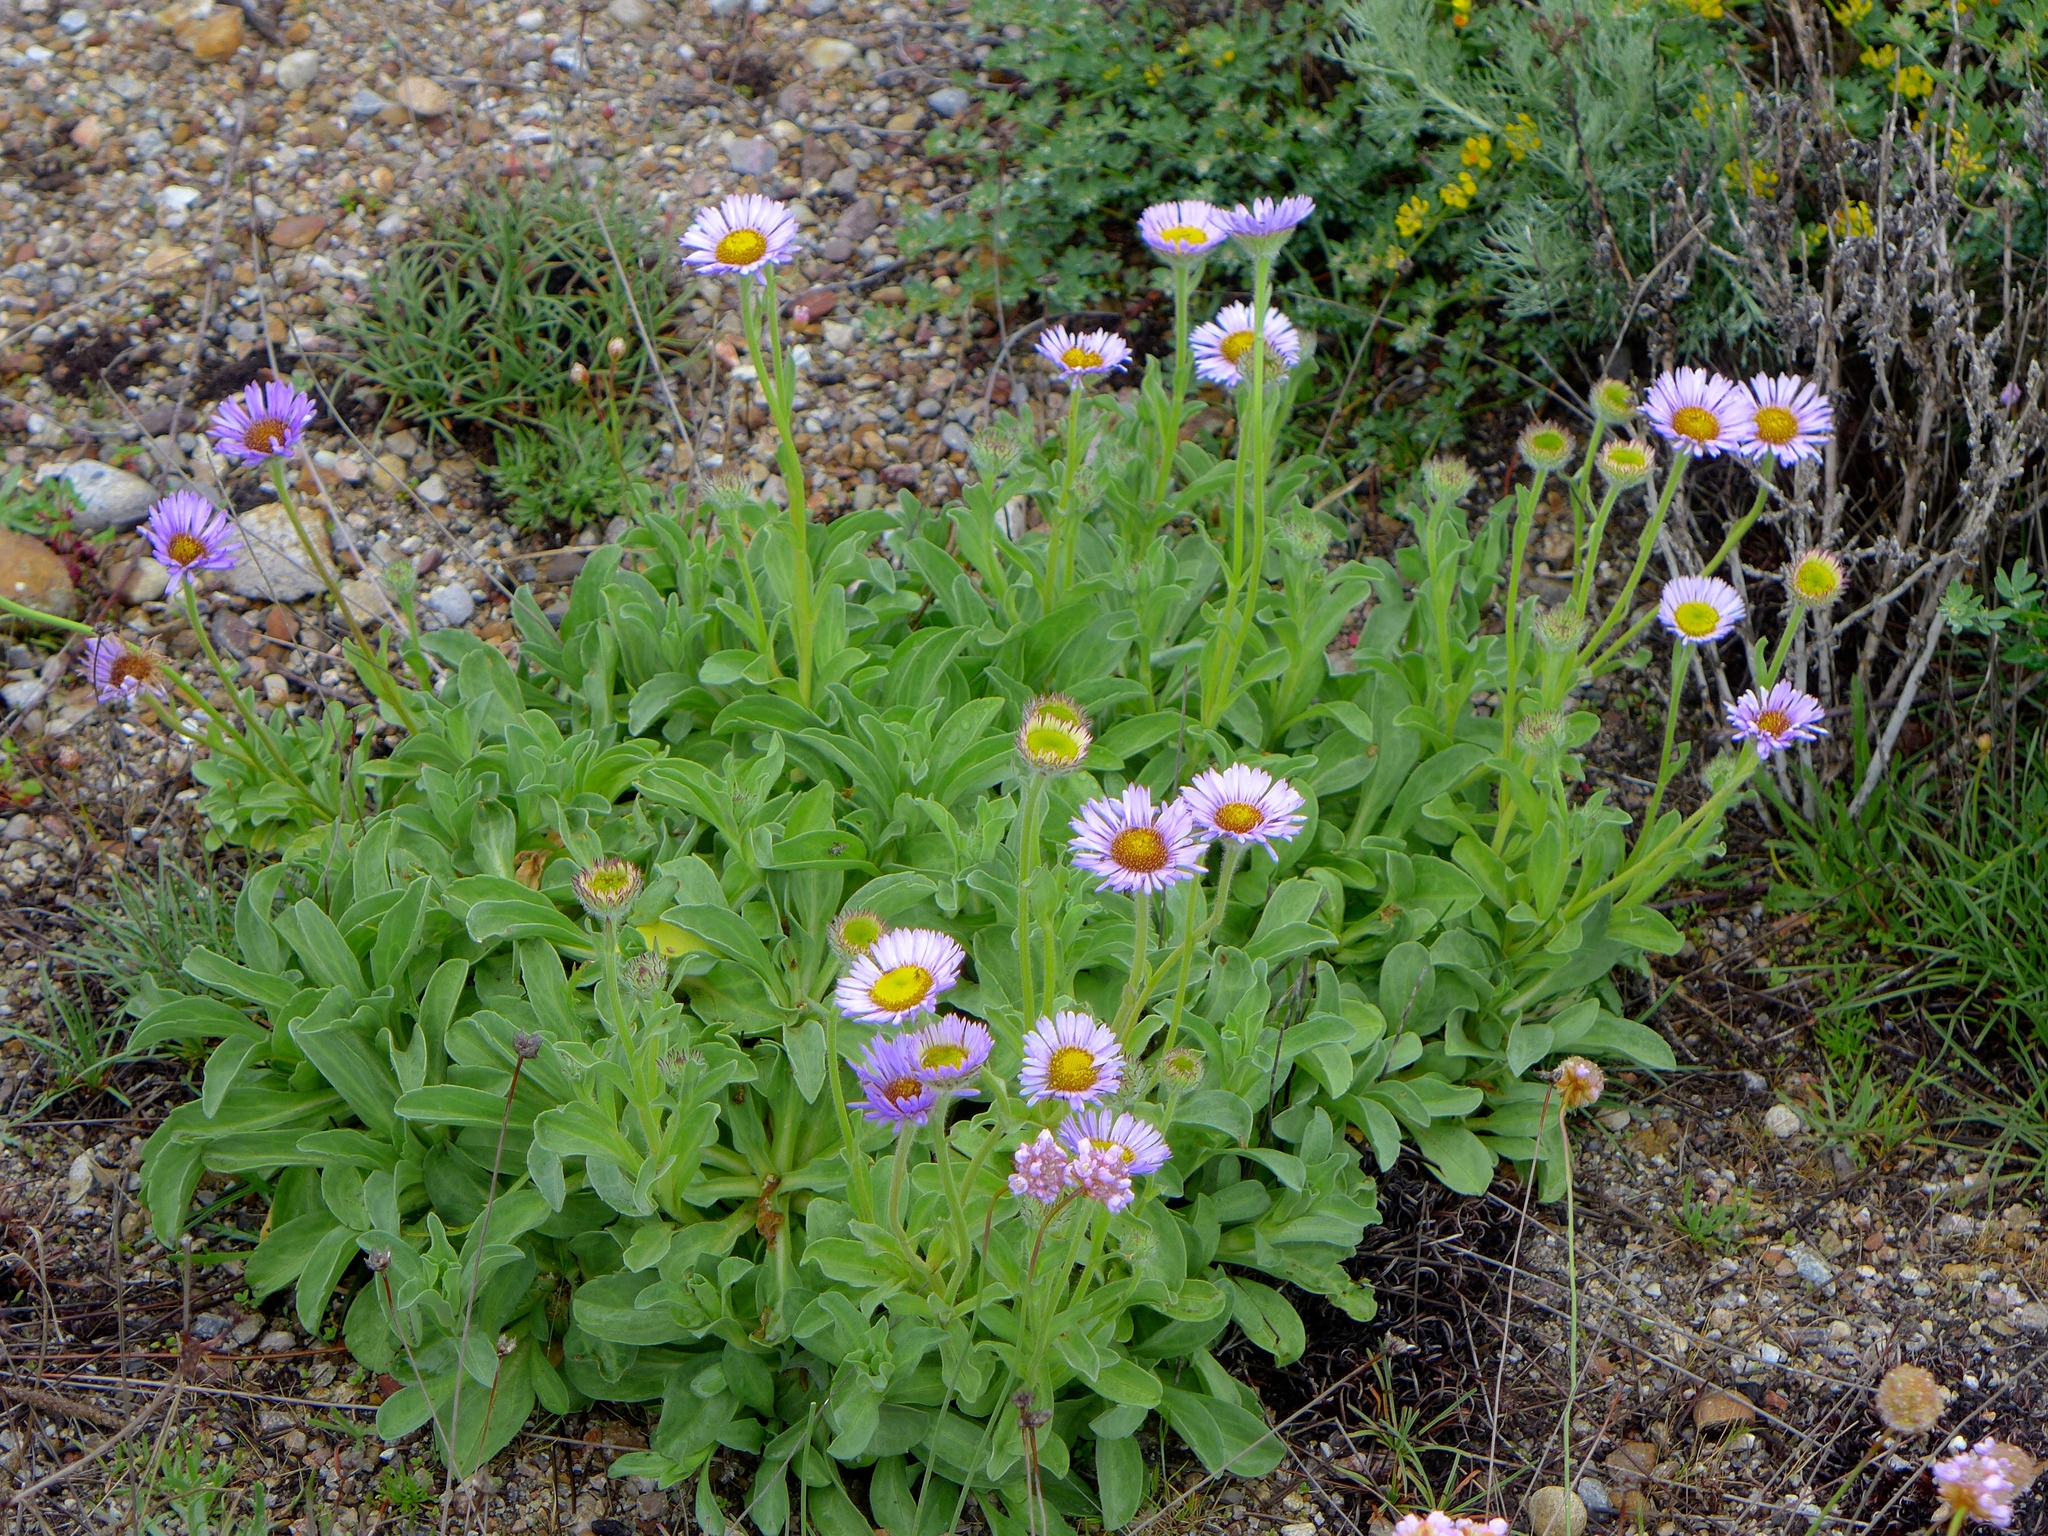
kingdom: Plantae
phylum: Tracheophyta
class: Magnoliopsida
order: Asterales
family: Asteraceae
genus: Erigeron
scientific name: Erigeron glaucus
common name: Seaside daisy
